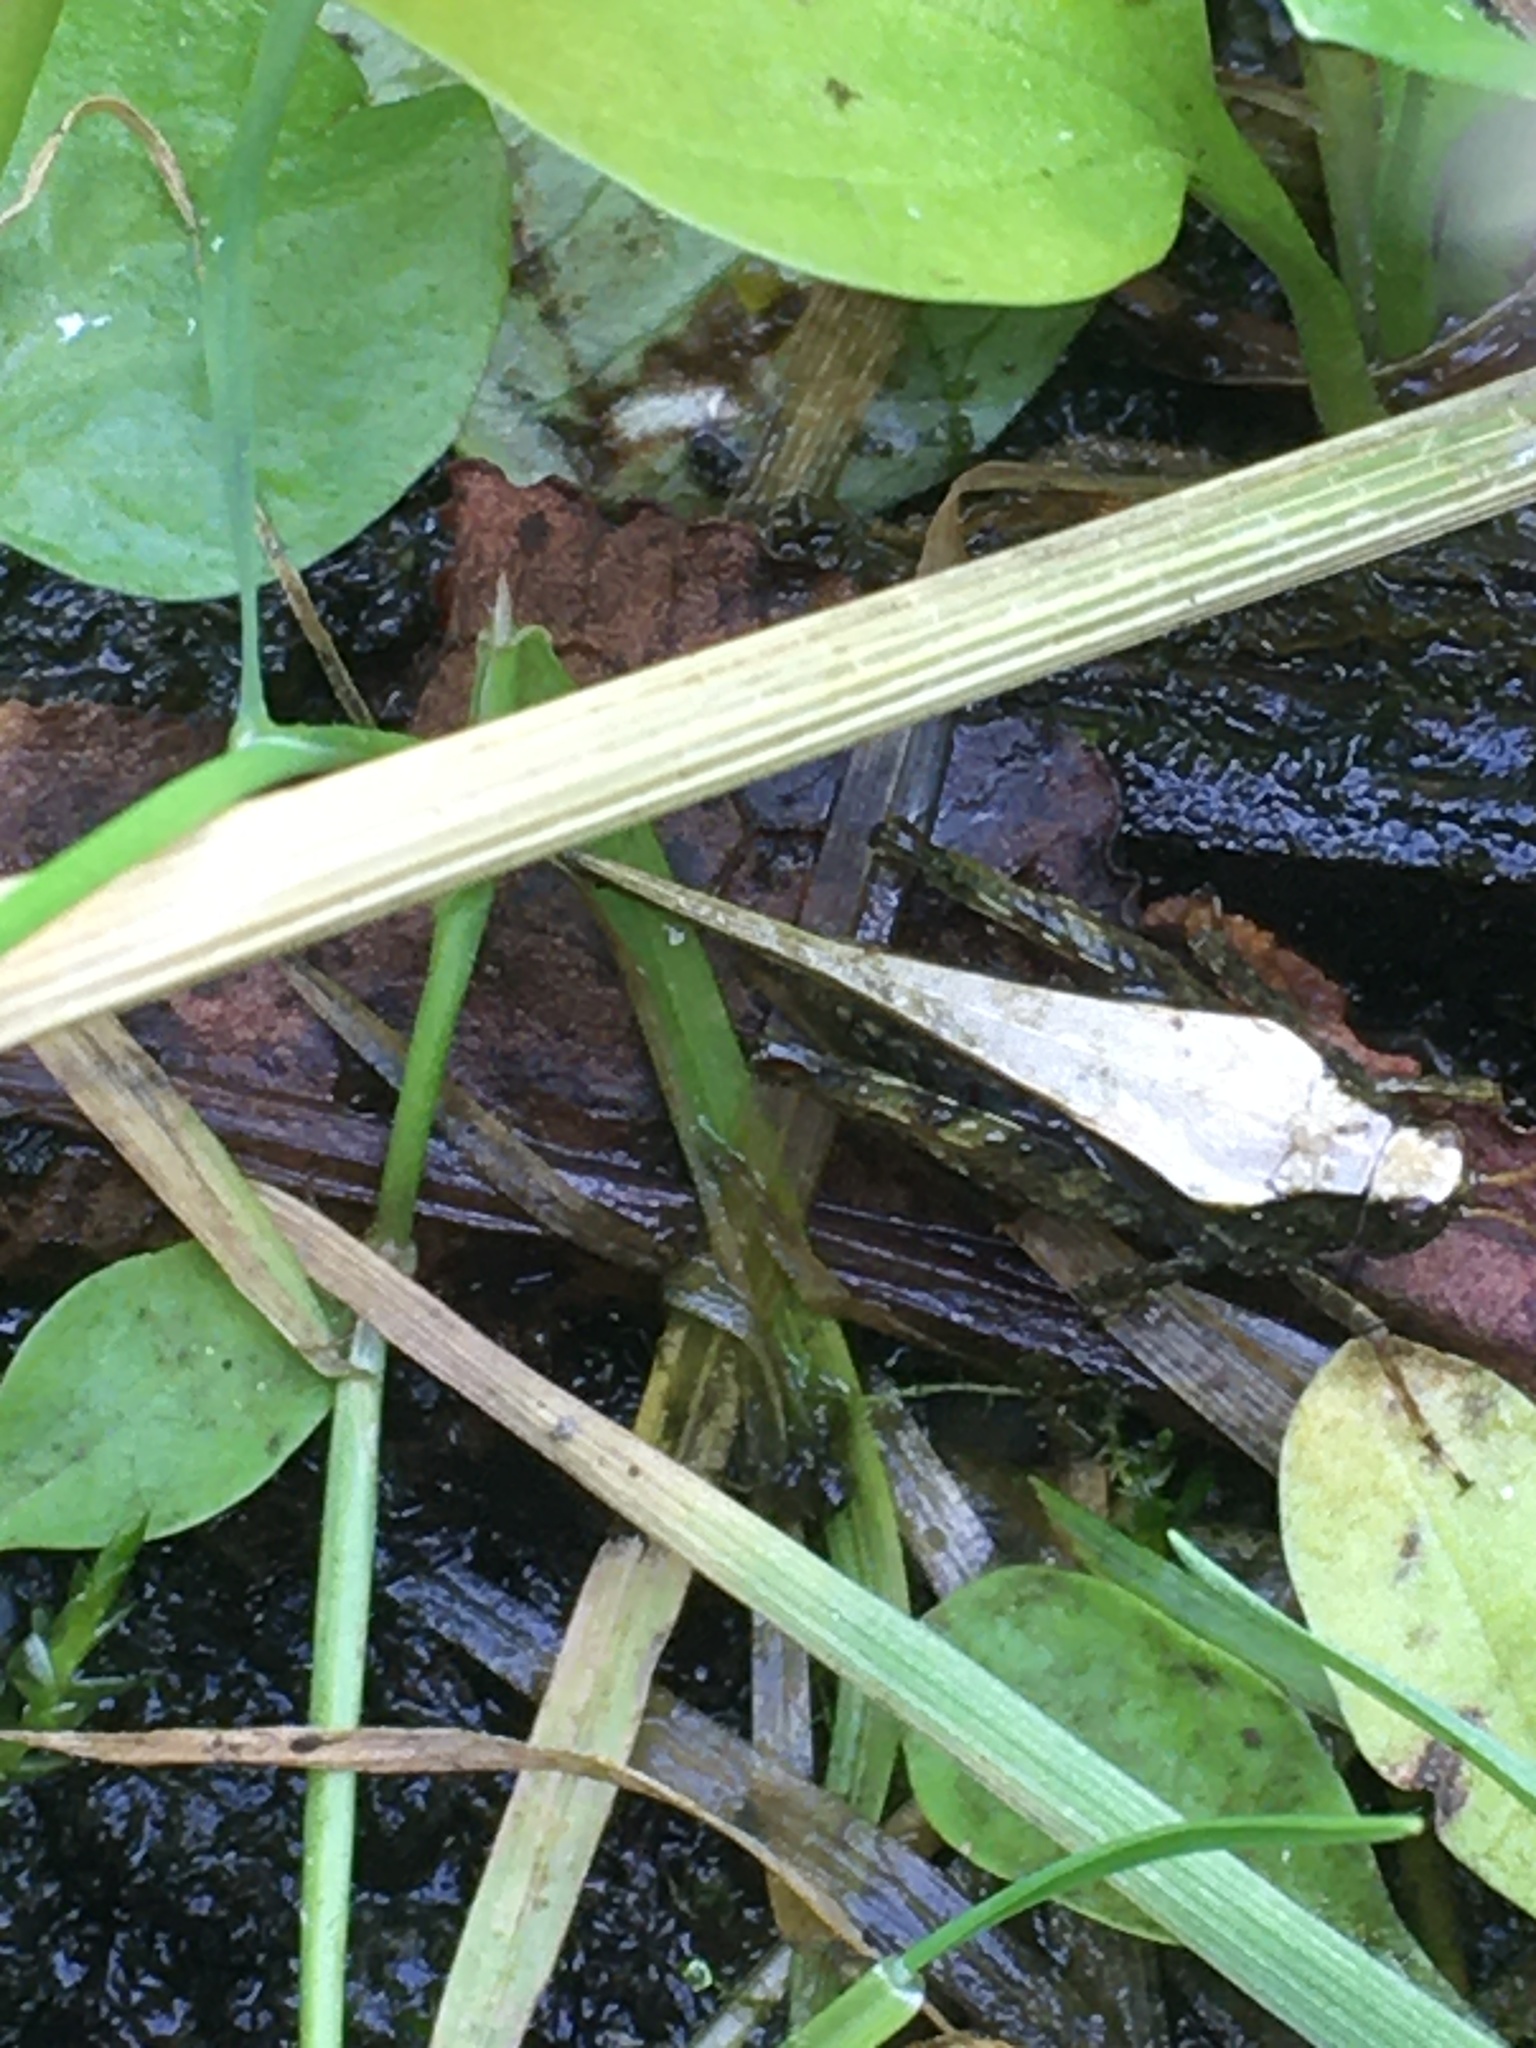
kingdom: Animalia
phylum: Arthropoda
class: Insecta
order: Orthoptera
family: Tetrigidae
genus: Tetrix
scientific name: Tetrix subulata
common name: Slender ground-hopper
